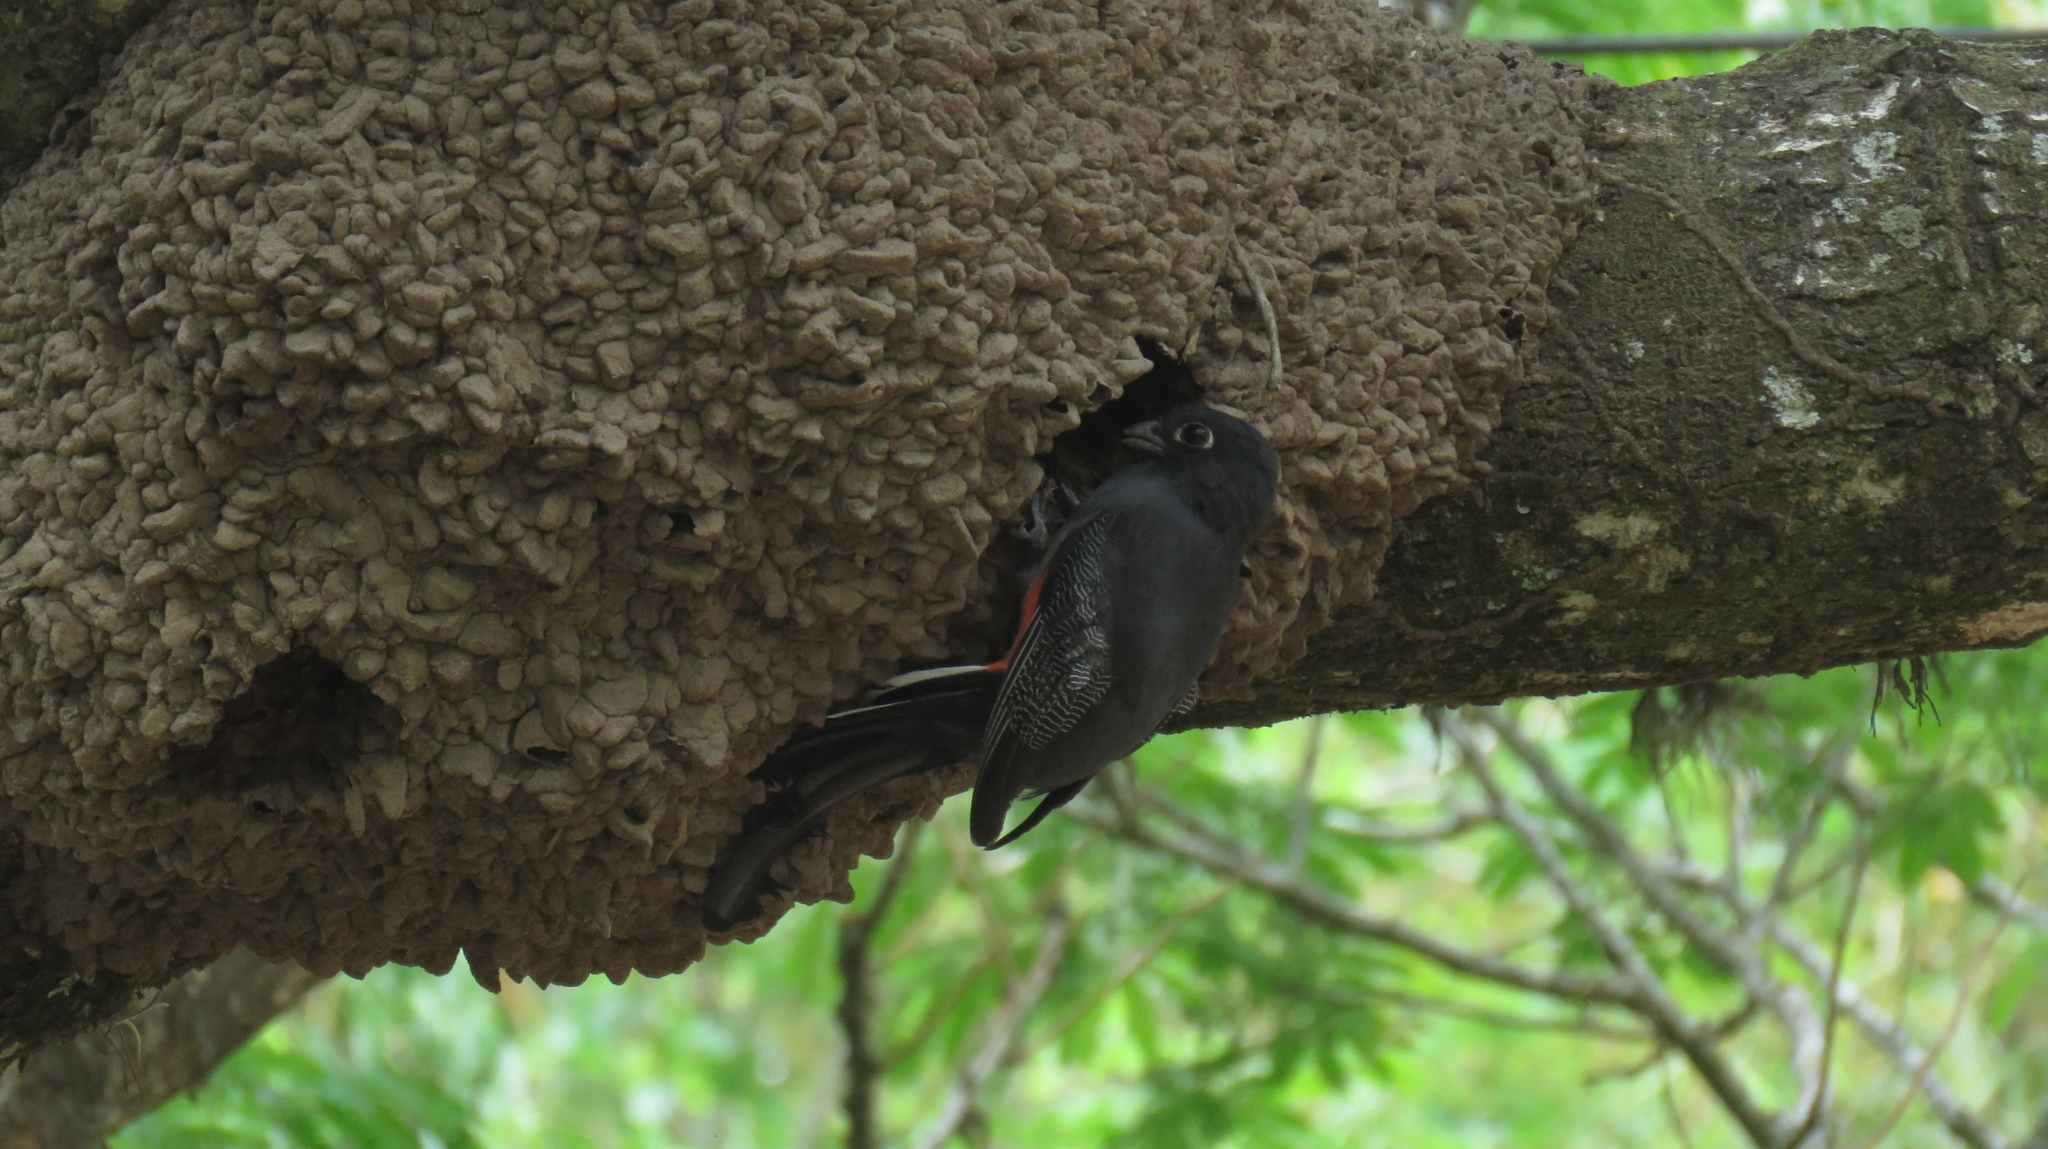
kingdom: Animalia
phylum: Chordata
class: Aves
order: Trogoniformes
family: Trogonidae
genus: Trogon
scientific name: Trogon surrucura
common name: Surucua trogon
